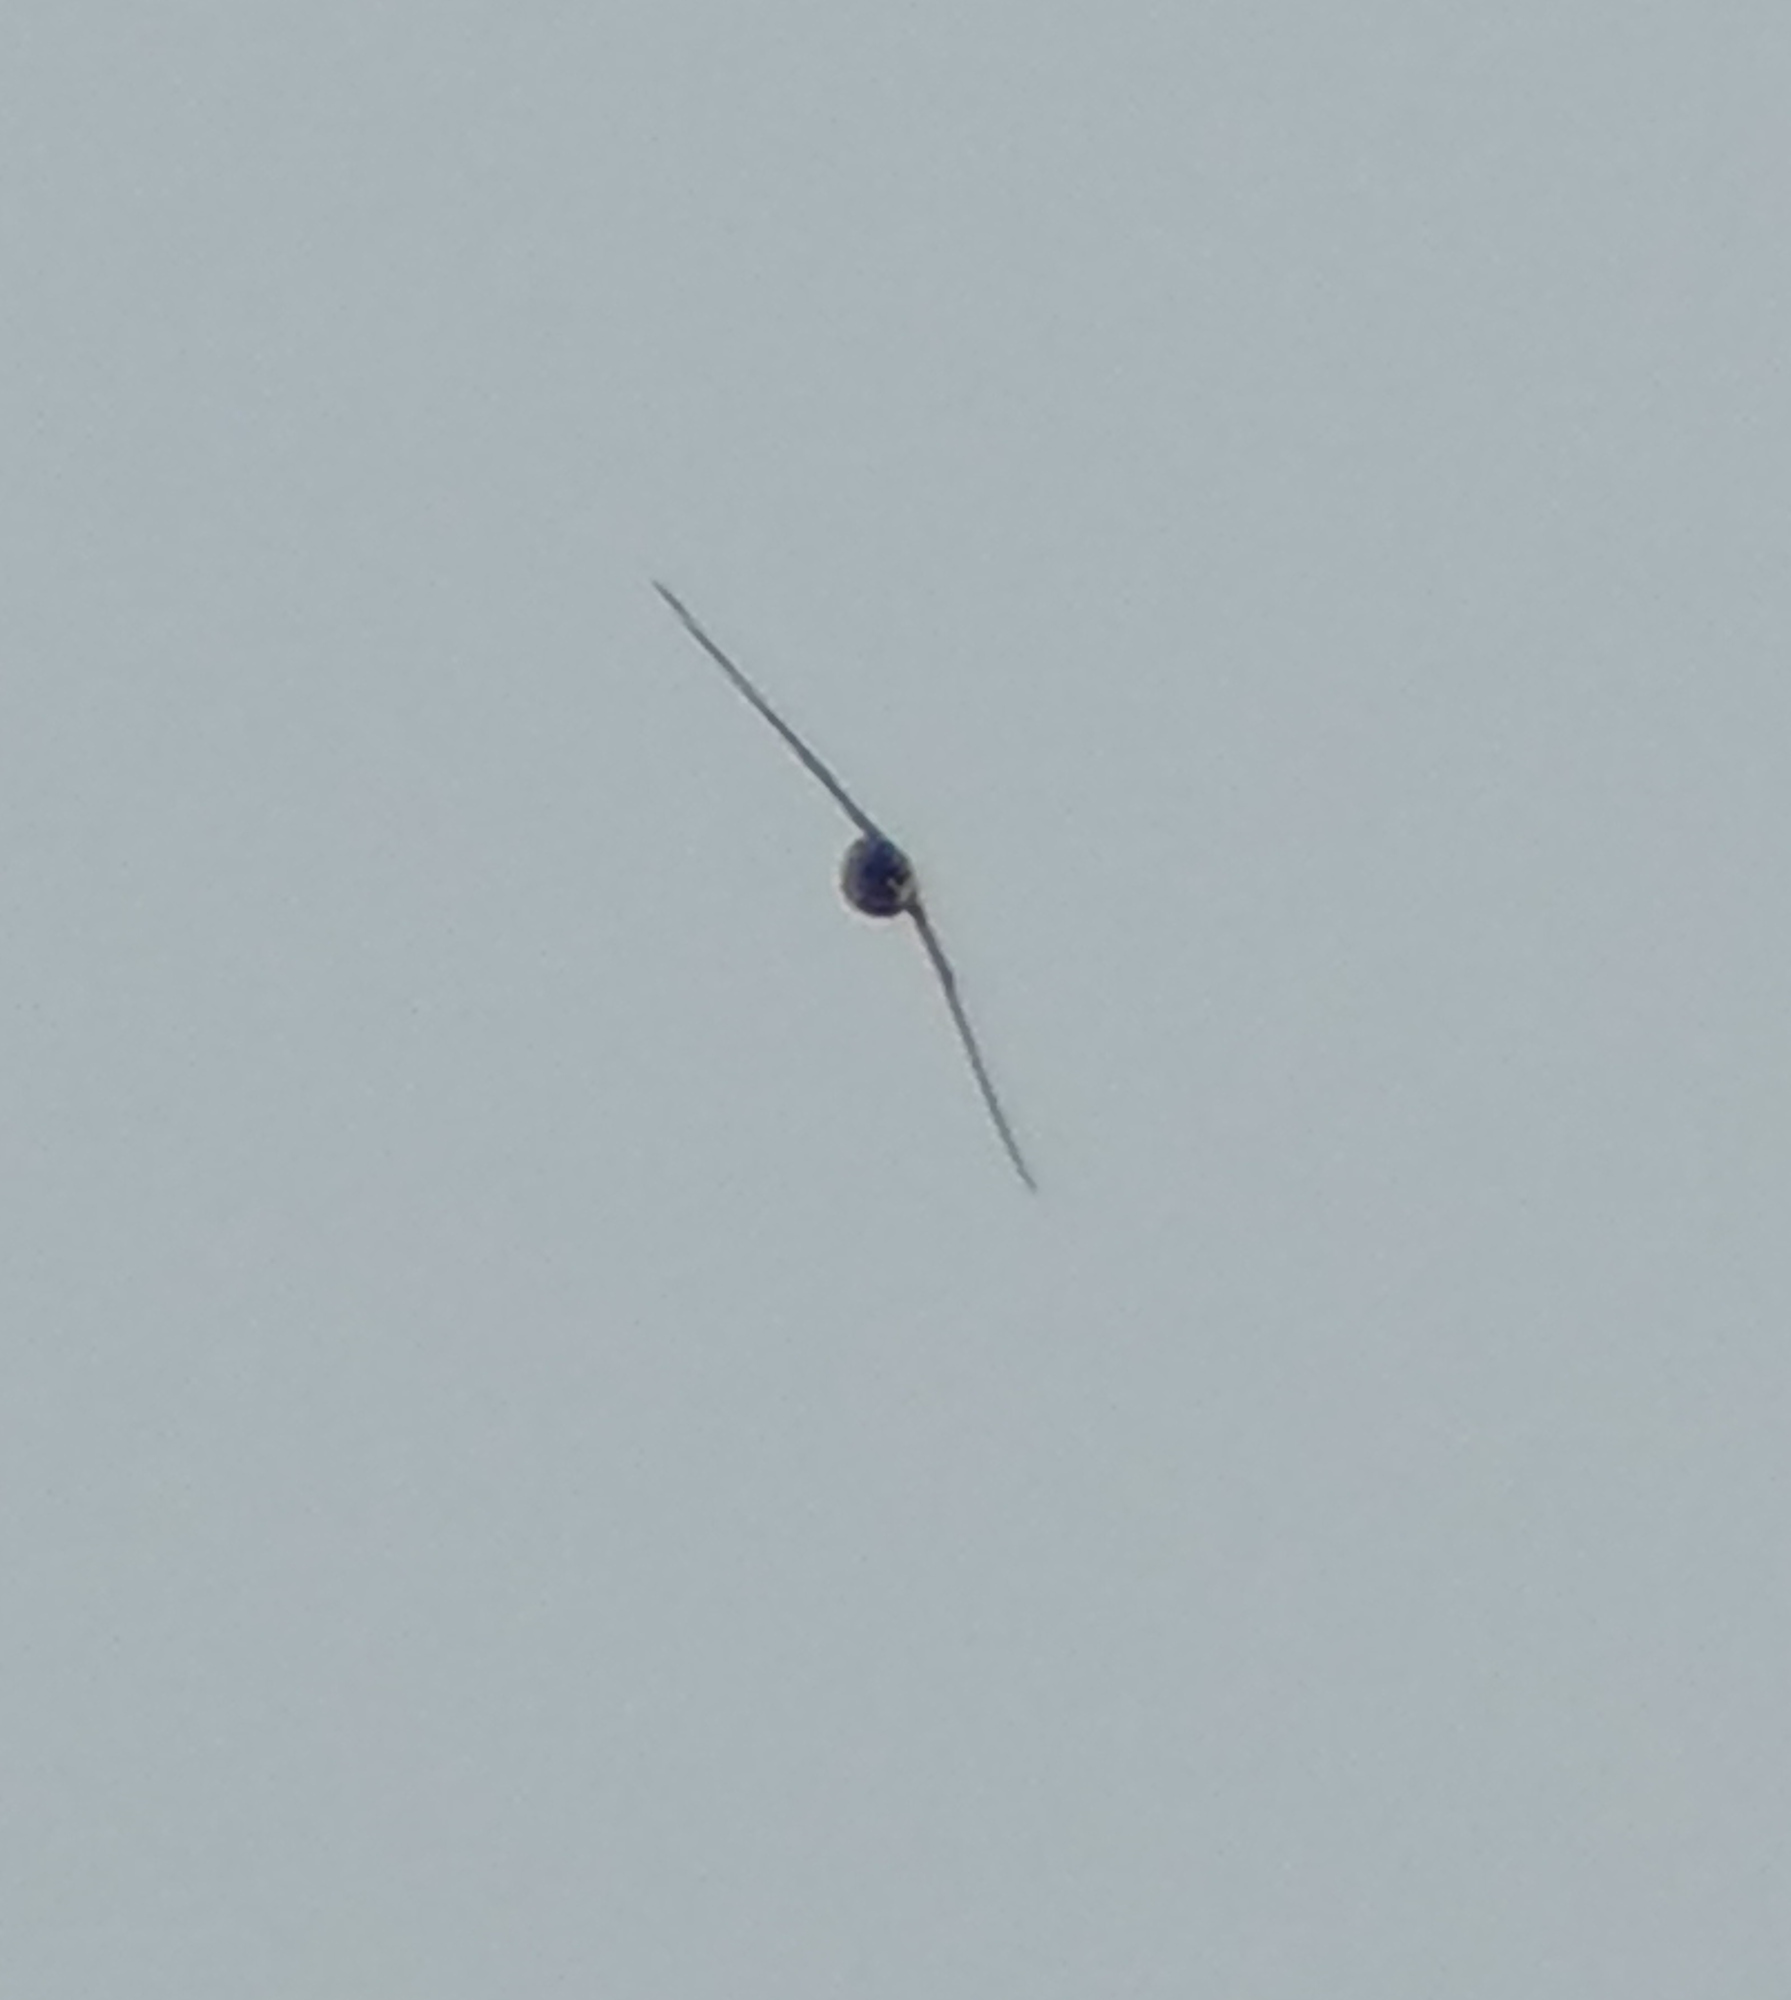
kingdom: Animalia
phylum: Chordata
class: Aves
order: Apodiformes
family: Apodidae
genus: Chaetura
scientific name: Chaetura pelagica
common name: Chimney swift
